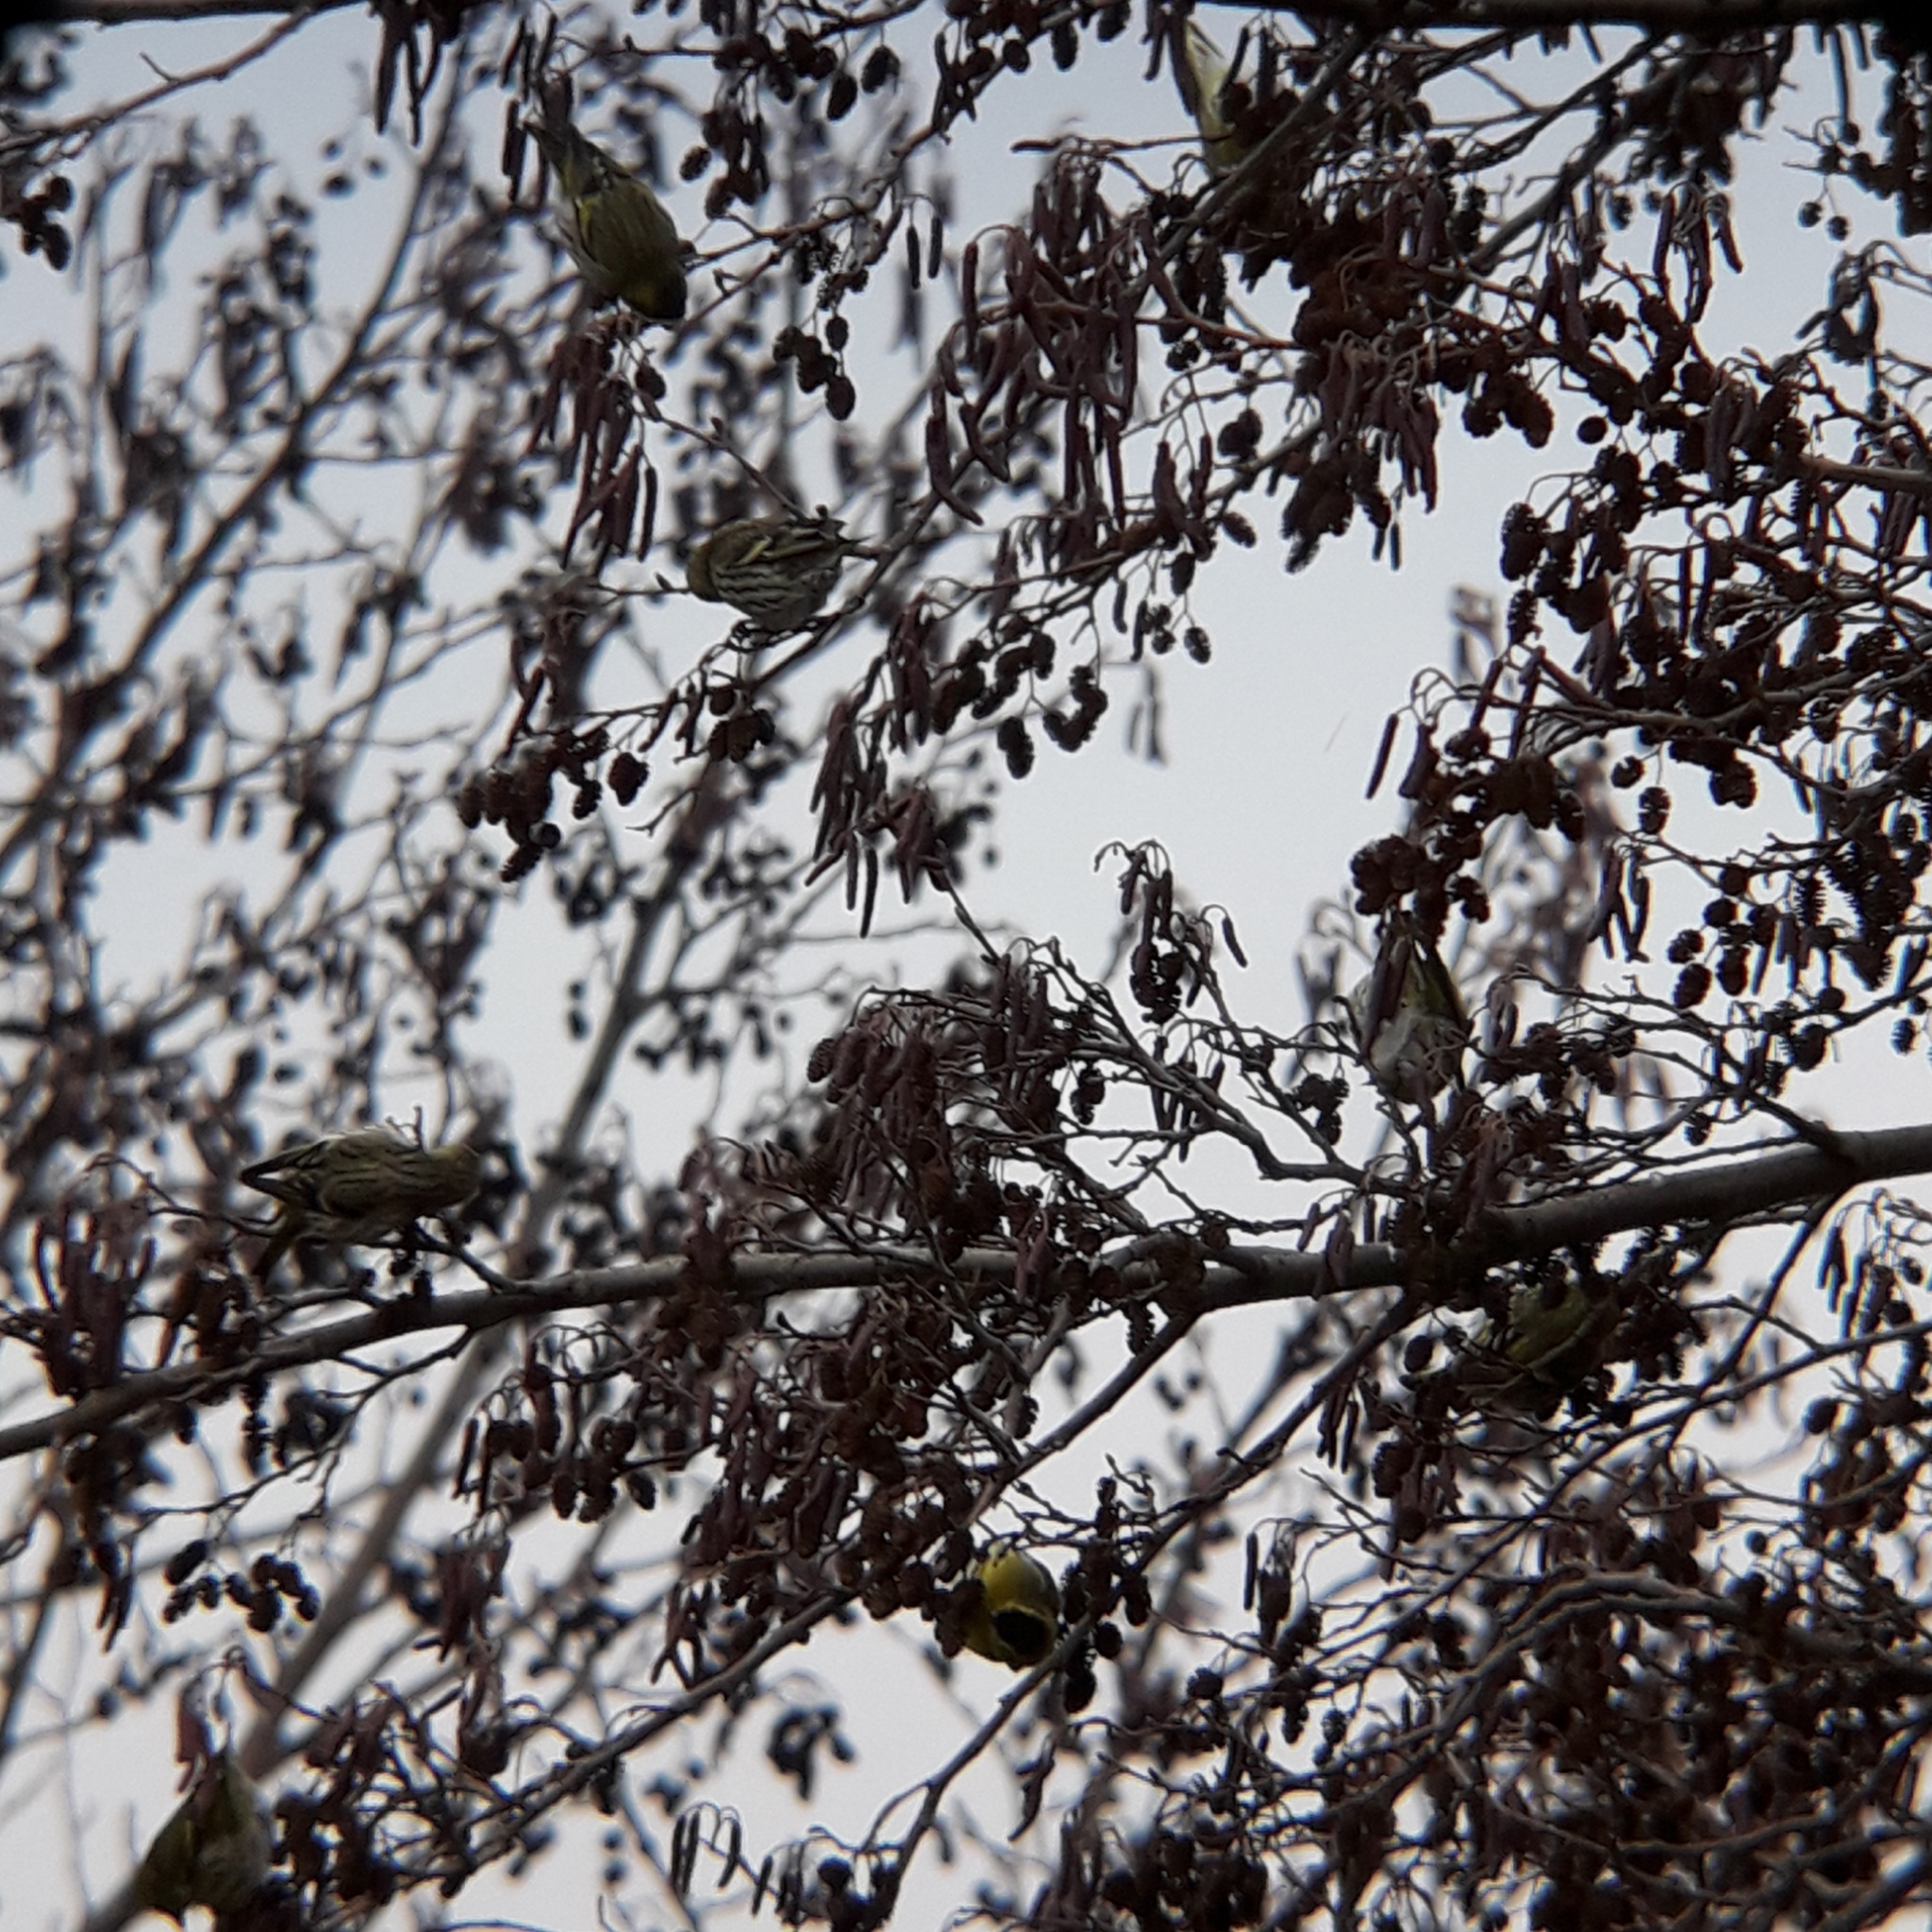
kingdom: Animalia
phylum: Chordata
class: Aves
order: Passeriformes
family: Fringillidae
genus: Spinus
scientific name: Spinus spinus
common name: Eurasian siskin
